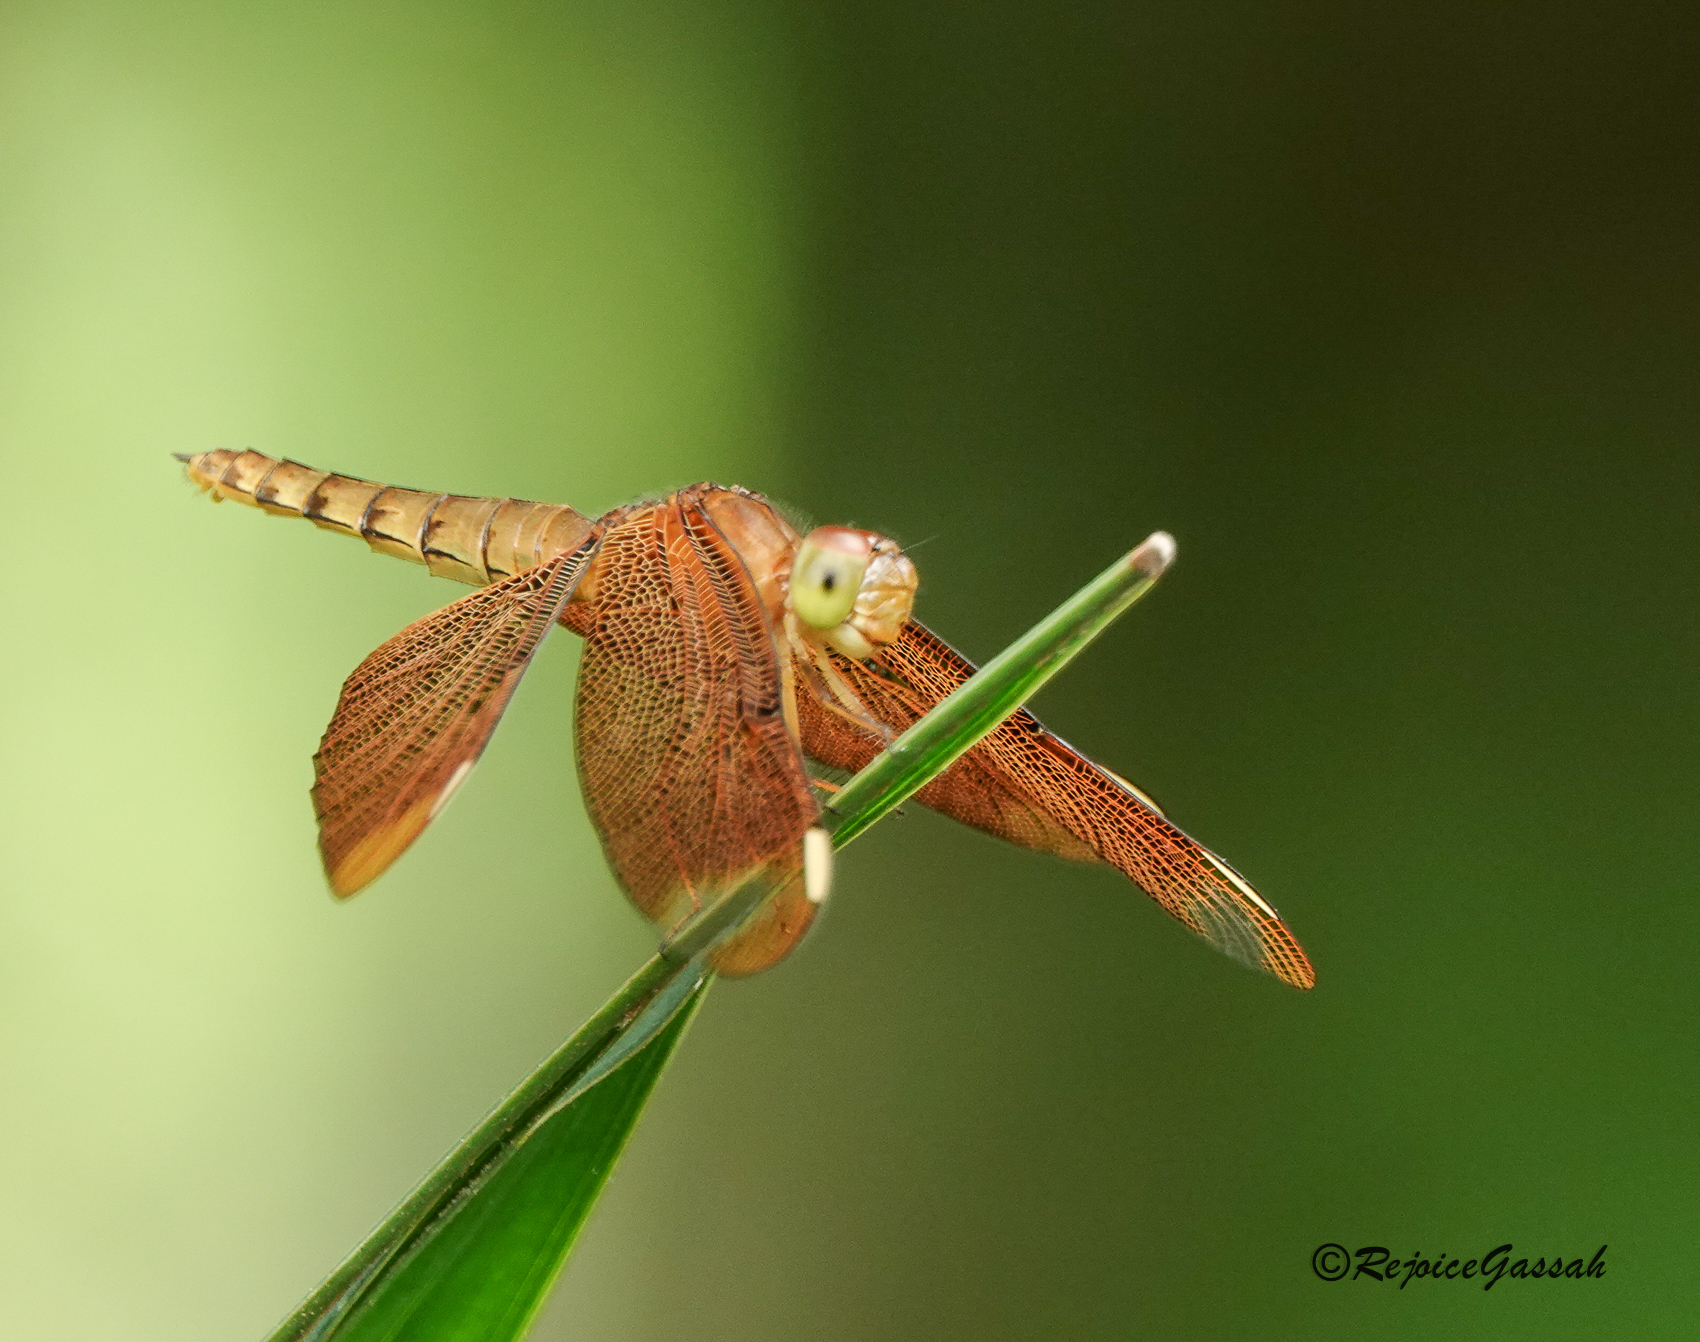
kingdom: Animalia
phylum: Arthropoda
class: Insecta
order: Odonata
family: Libellulidae
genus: Neurothemis
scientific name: Neurothemis fulvia
